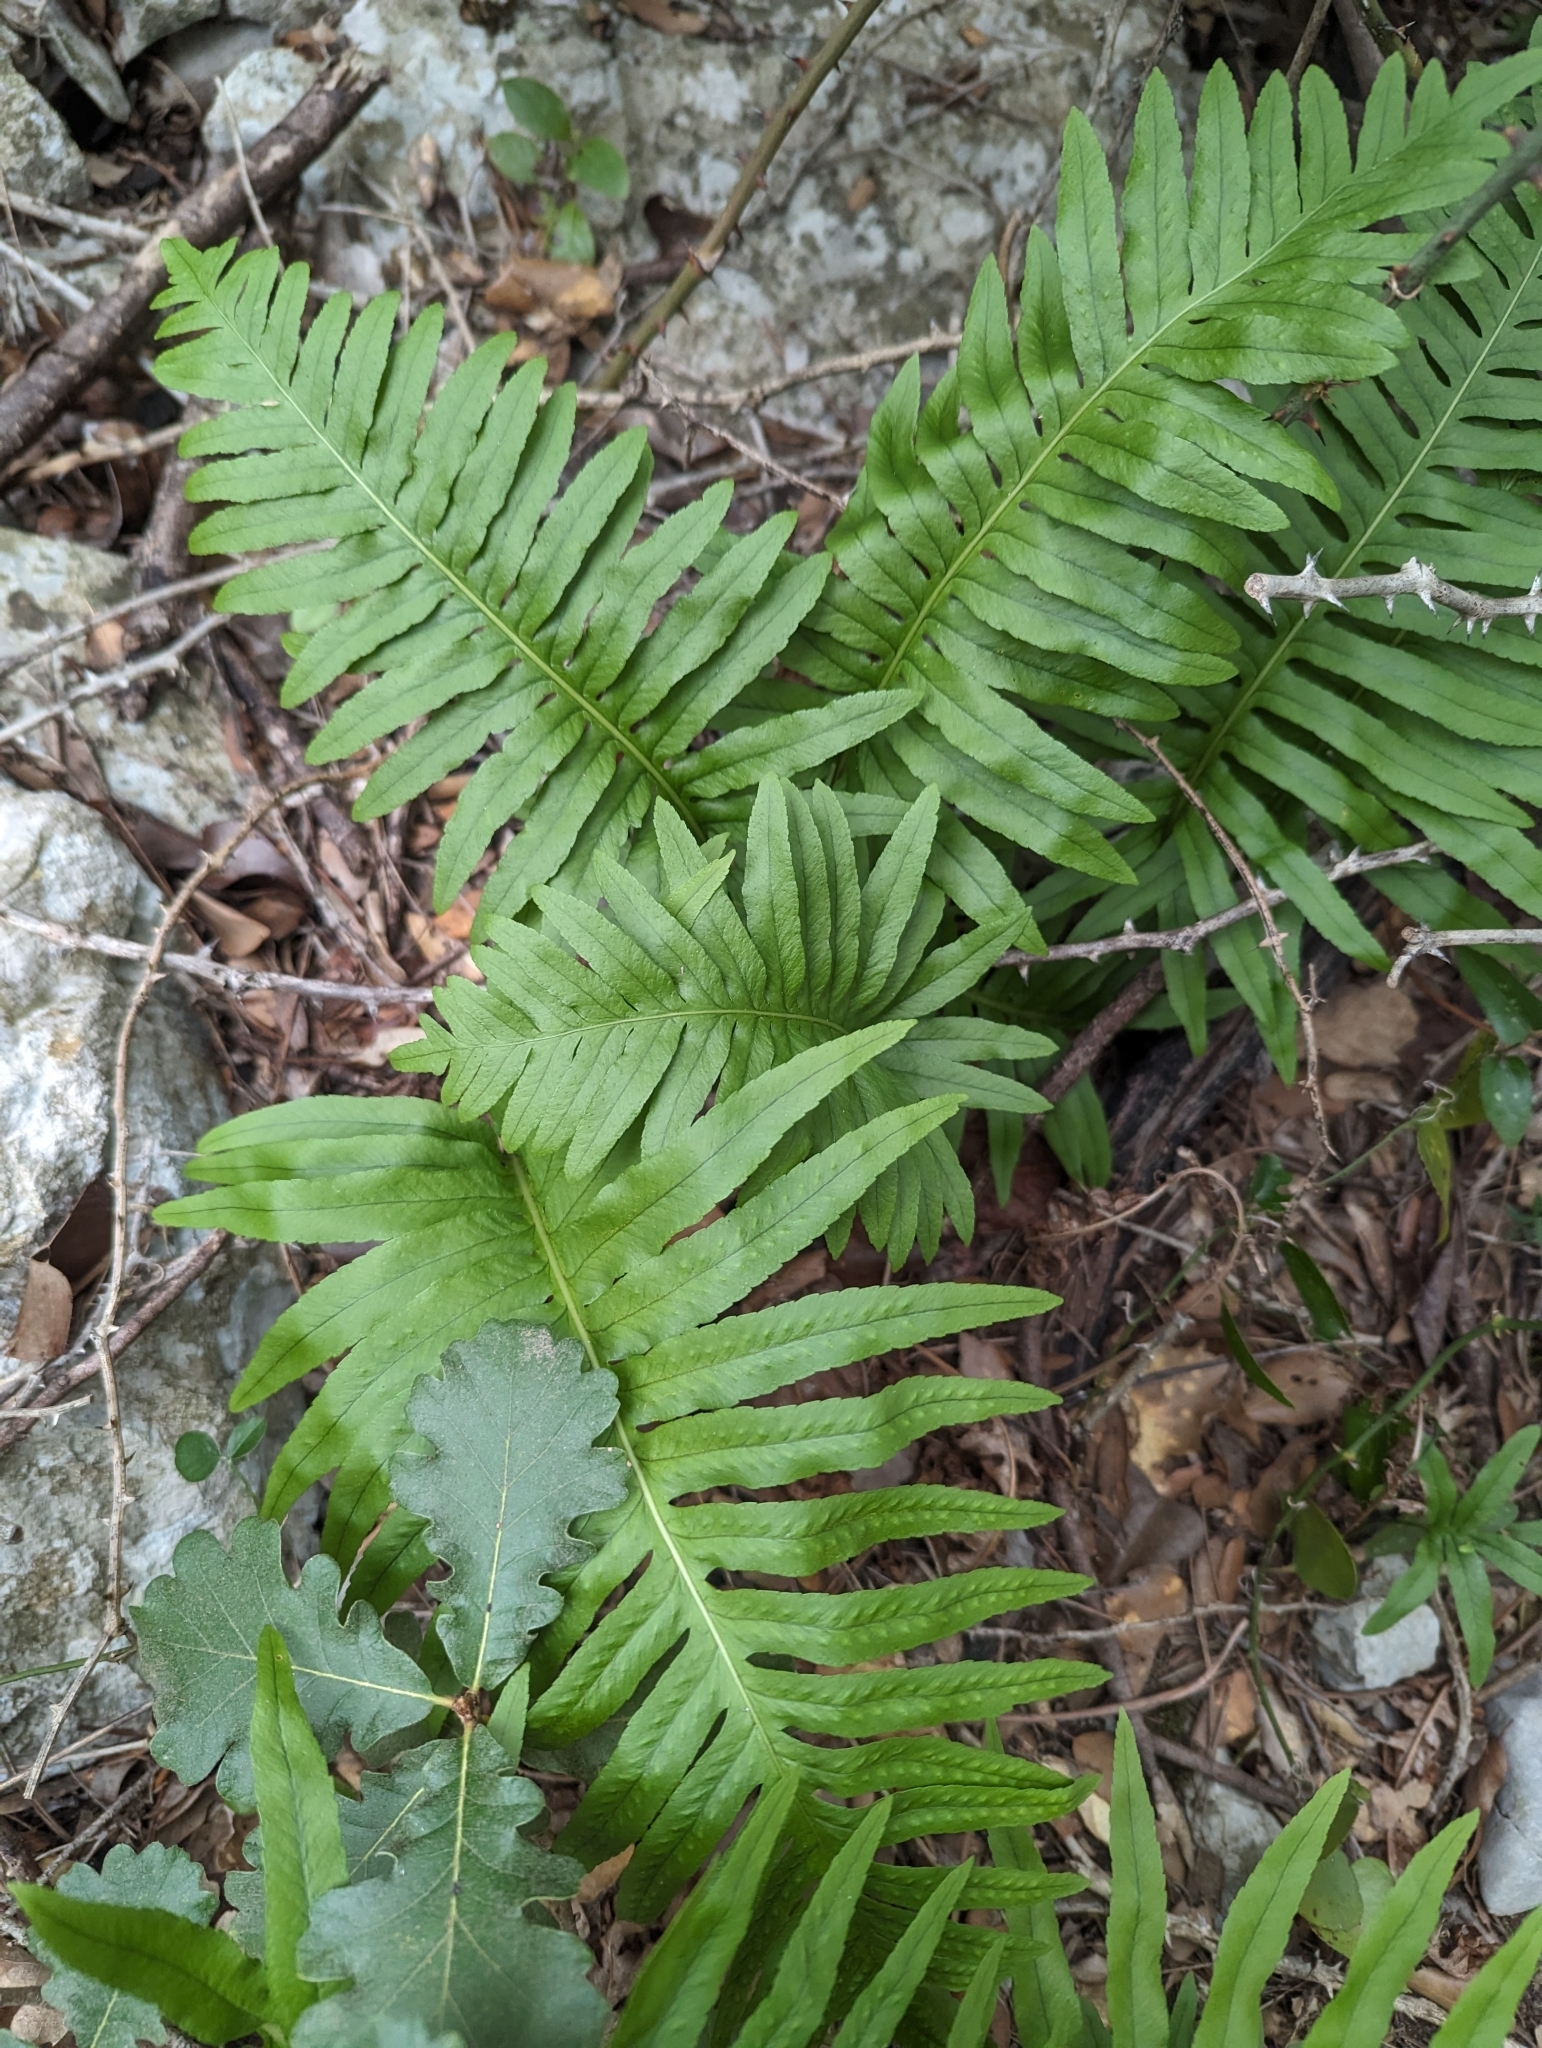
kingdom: Plantae
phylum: Tracheophyta
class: Polypodiopsida
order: Polypodiales
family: Polypodiaceae
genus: Polypodium
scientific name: Polypodium cambricum
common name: Southern polypody
